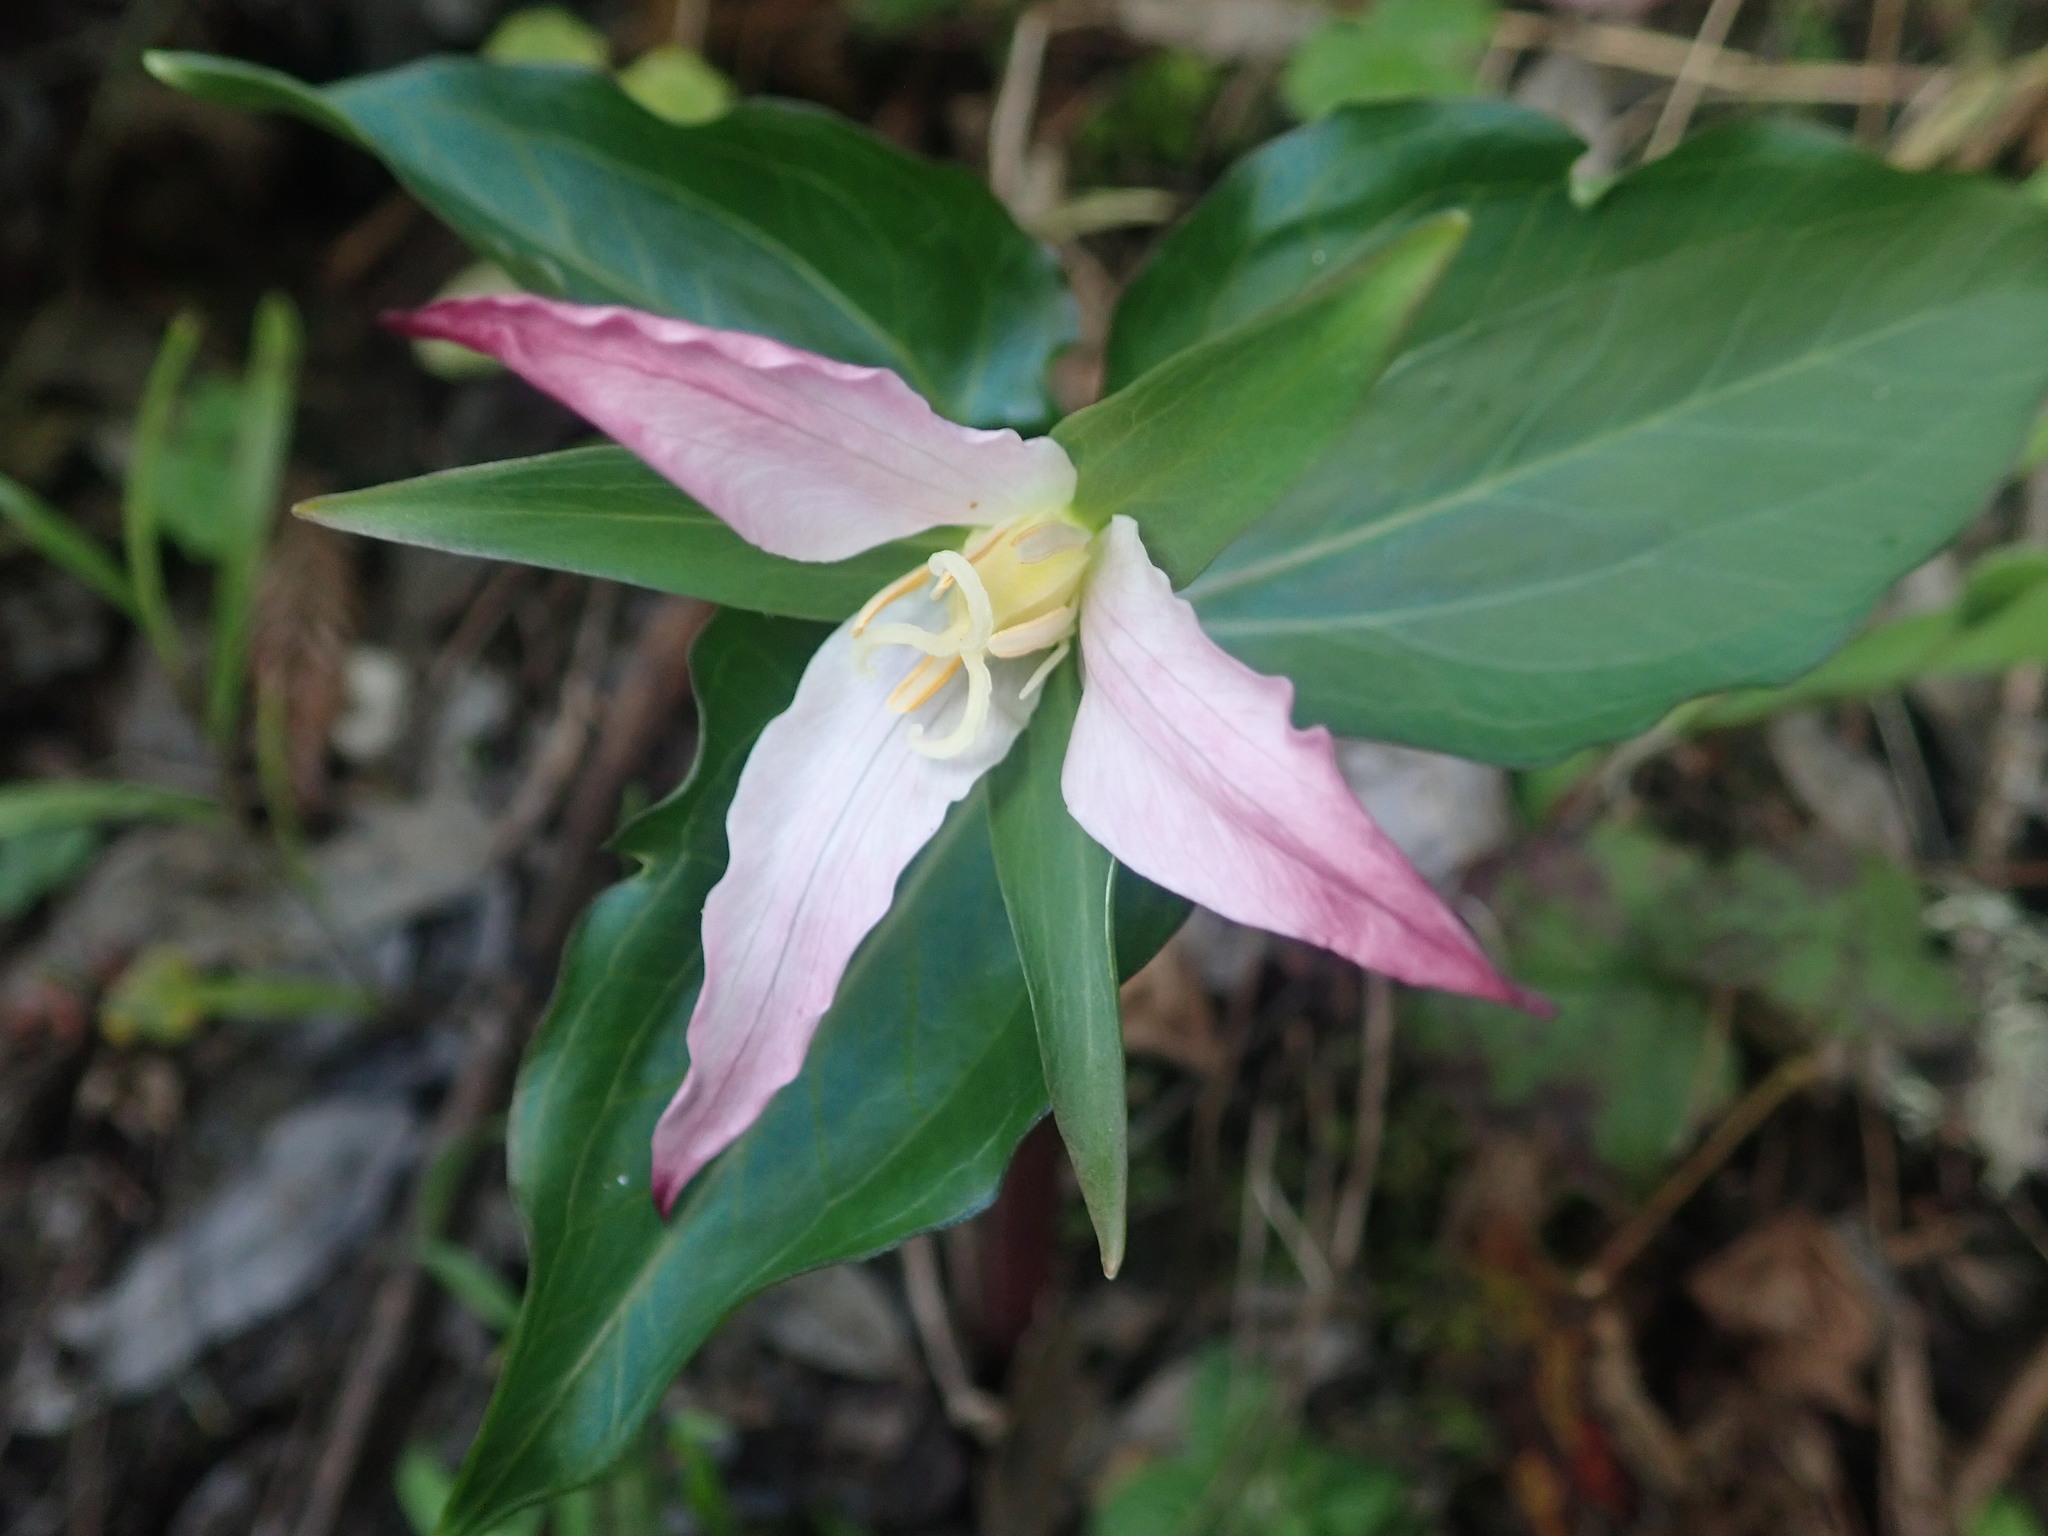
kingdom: Plantae
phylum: Tracheophyta
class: Liliopsida
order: Liliales
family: Melanthiaceae
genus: Trillium
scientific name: Trillium ovatum
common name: Pacific trillium
